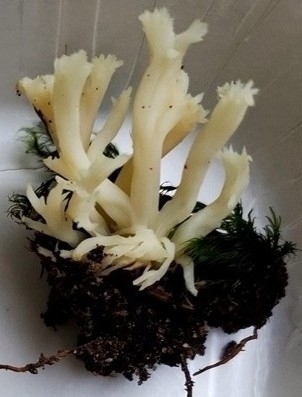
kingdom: Fungi
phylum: Basidiomycota
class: Agaricomycetes
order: Cantharellales
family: Hydnaceae
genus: Clavulina
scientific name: Clavulina coralloides
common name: Crested coral
